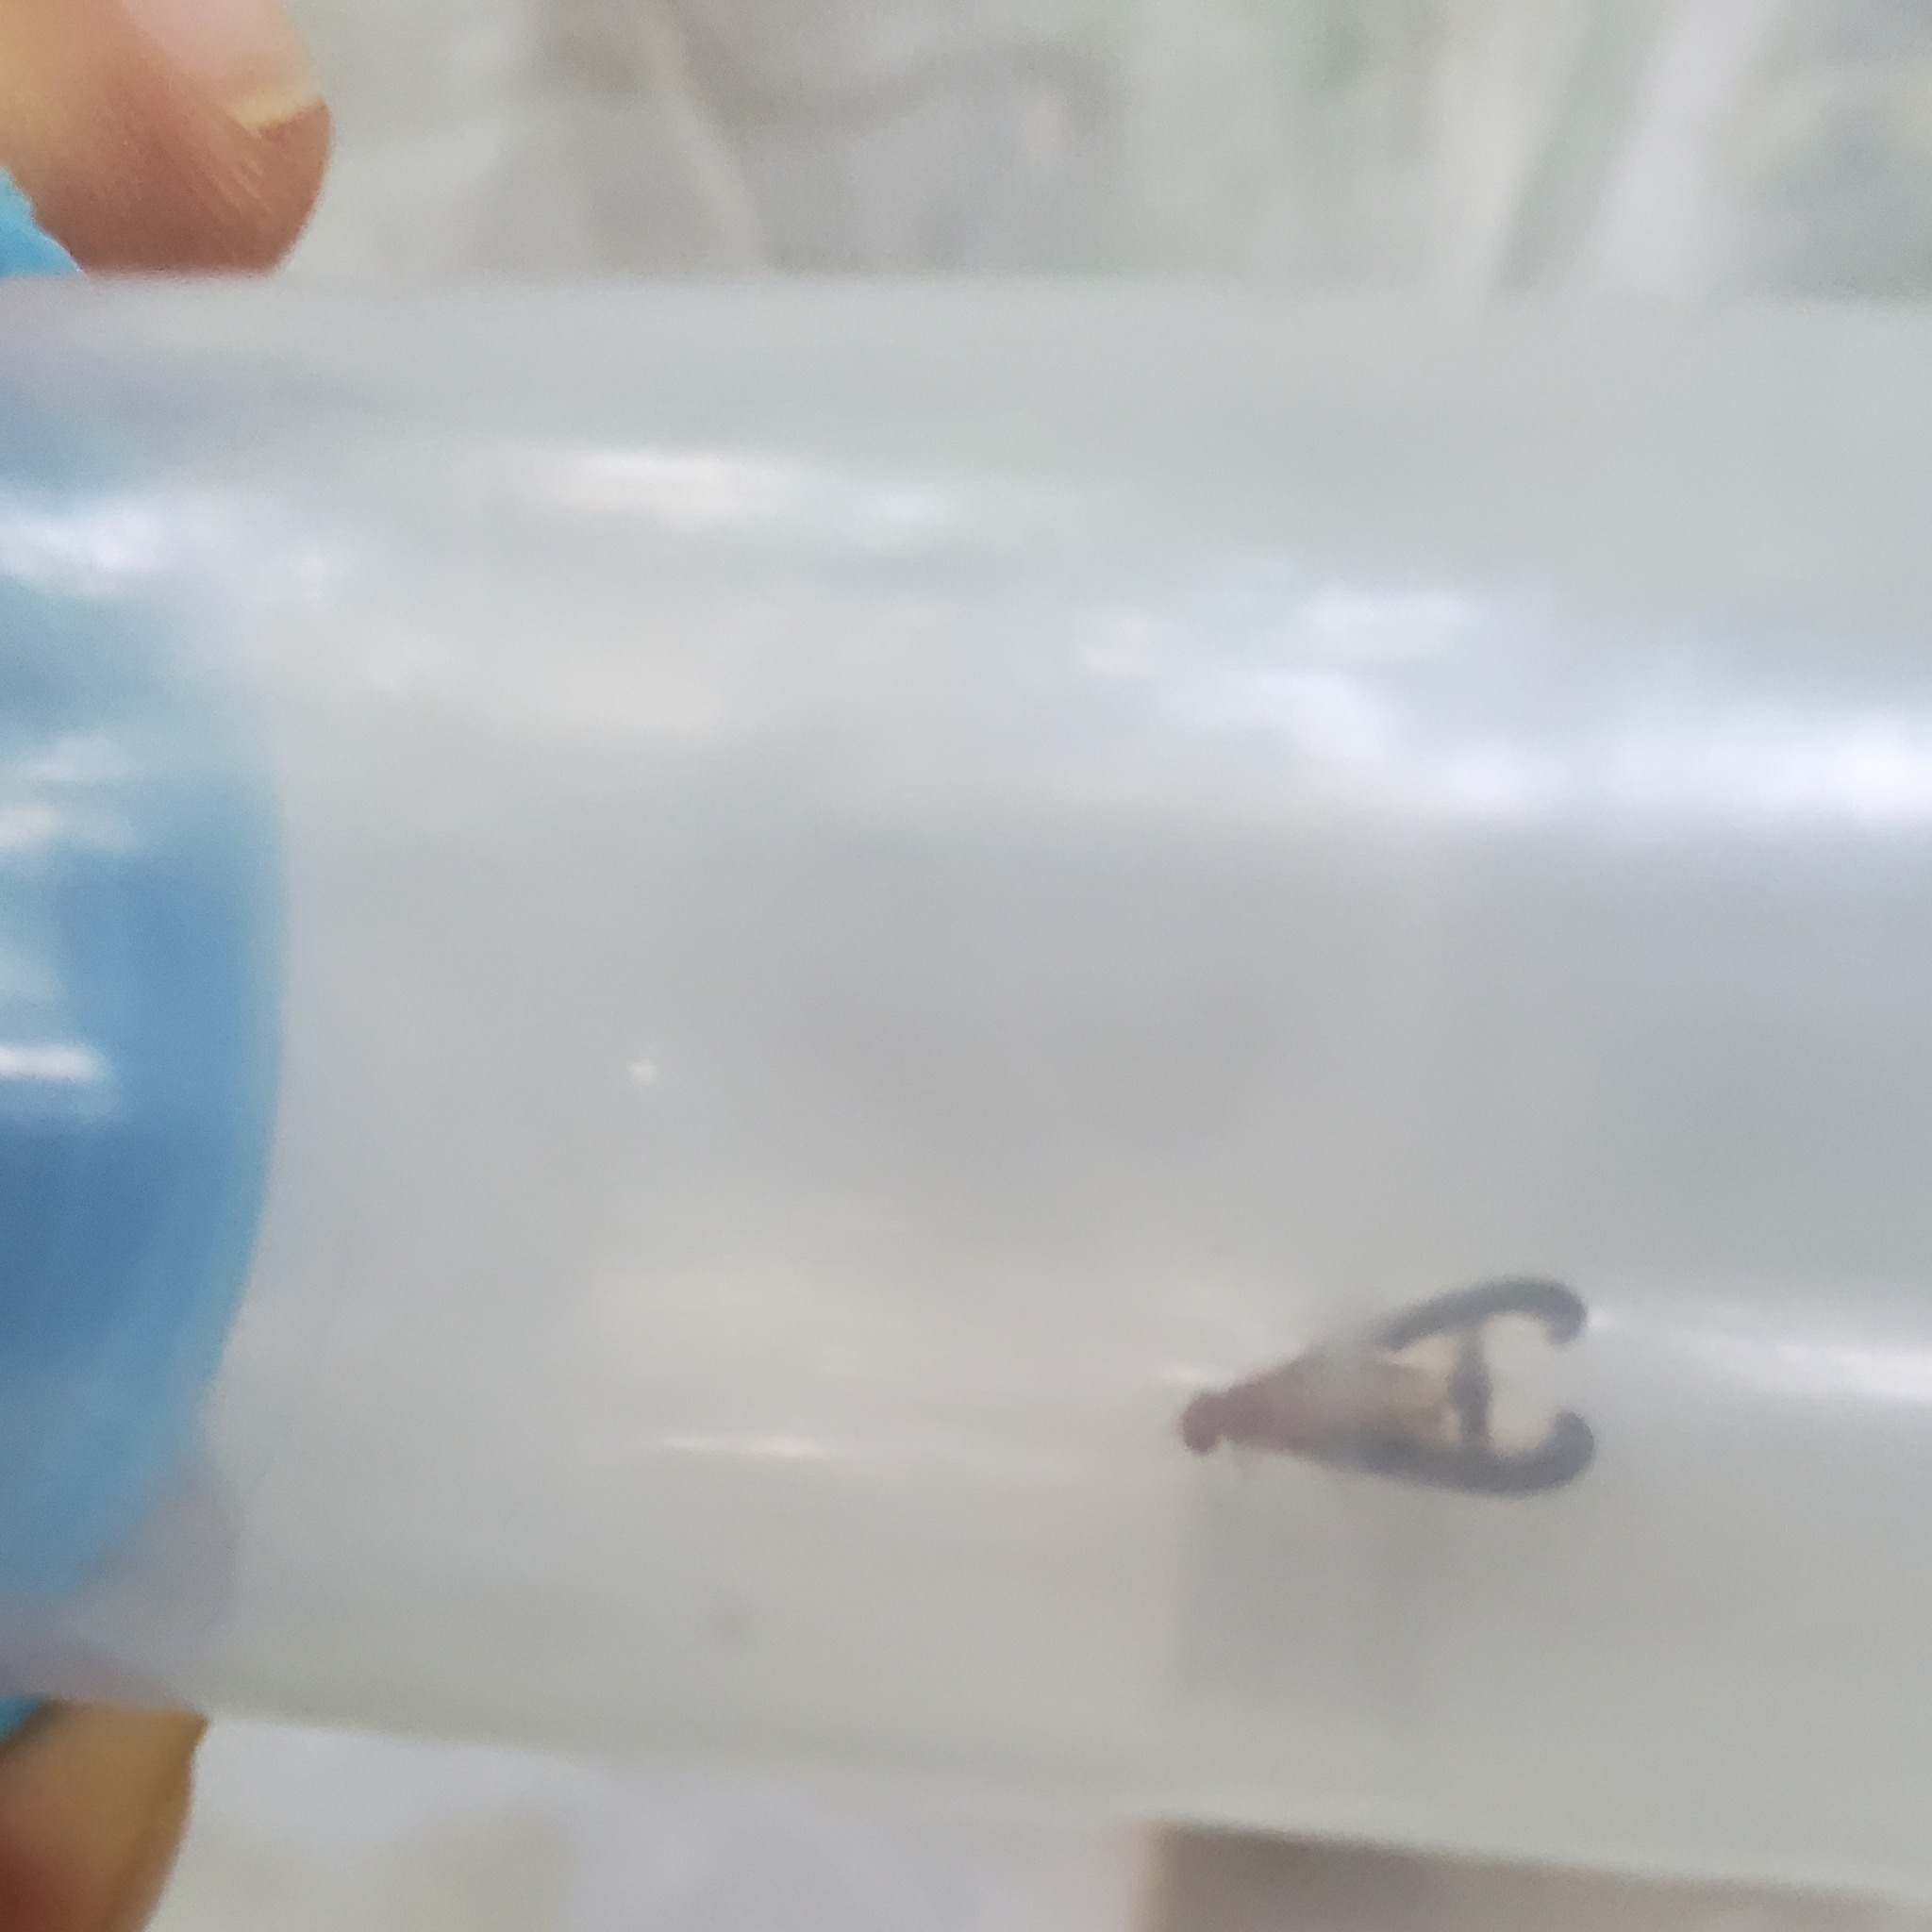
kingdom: Animalia
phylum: Arthropoda
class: Insecta
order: Diptera
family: Pallopteridae
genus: Toxonevra
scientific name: Toxonevra superba
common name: Antlered flutter fly
